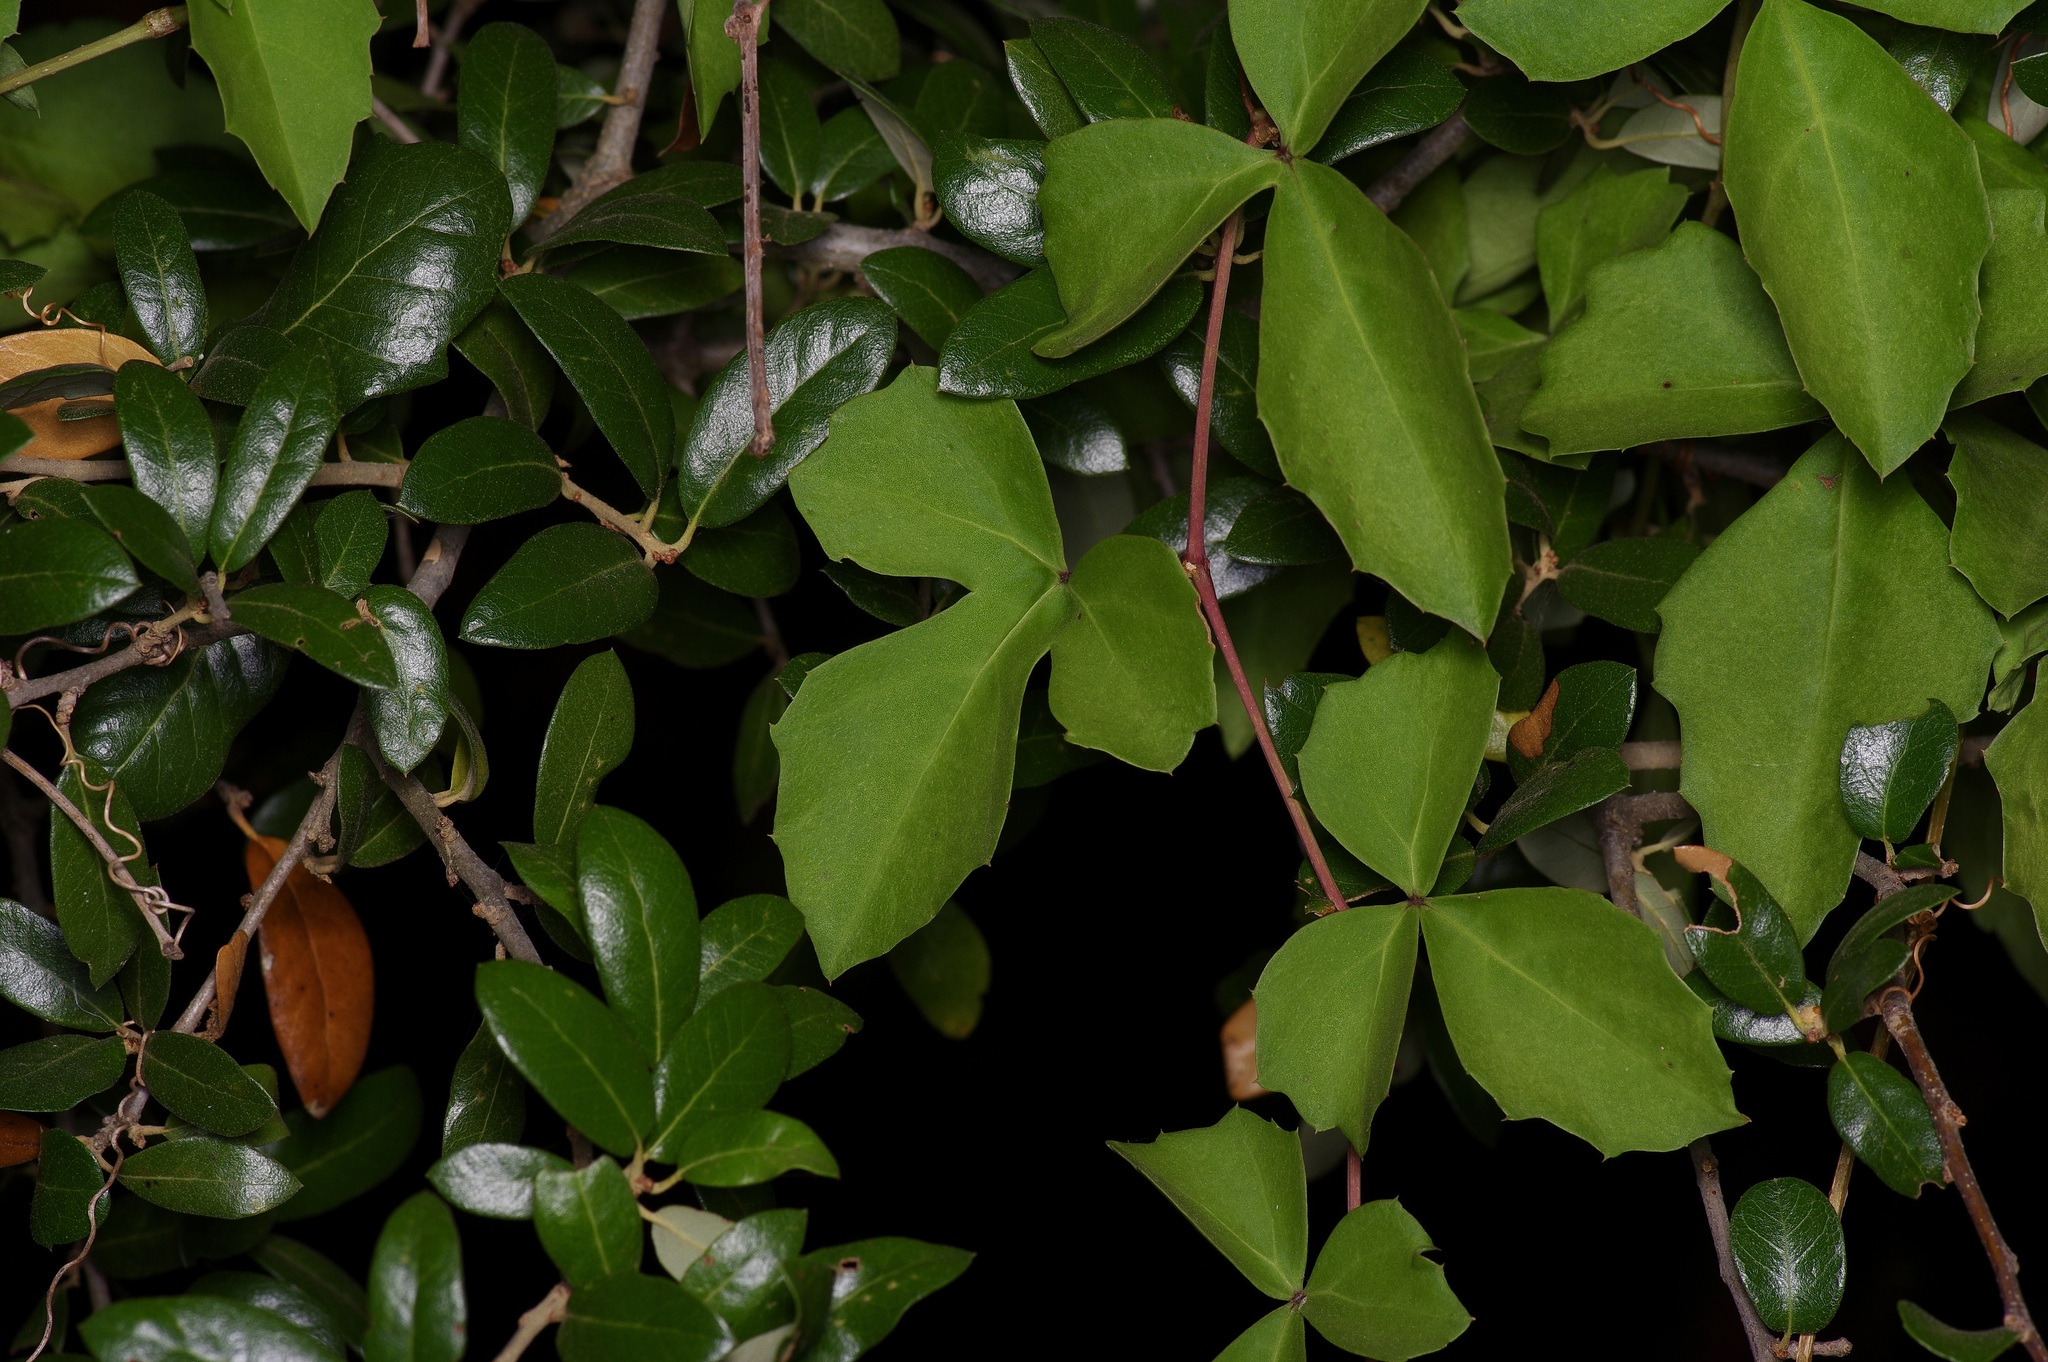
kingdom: Plantae
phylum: Tracheophyta
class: Magnoliopsida
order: Vitales
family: Vitaceae
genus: Cissus
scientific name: Cissus trifoliata
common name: Vine-sorrel
